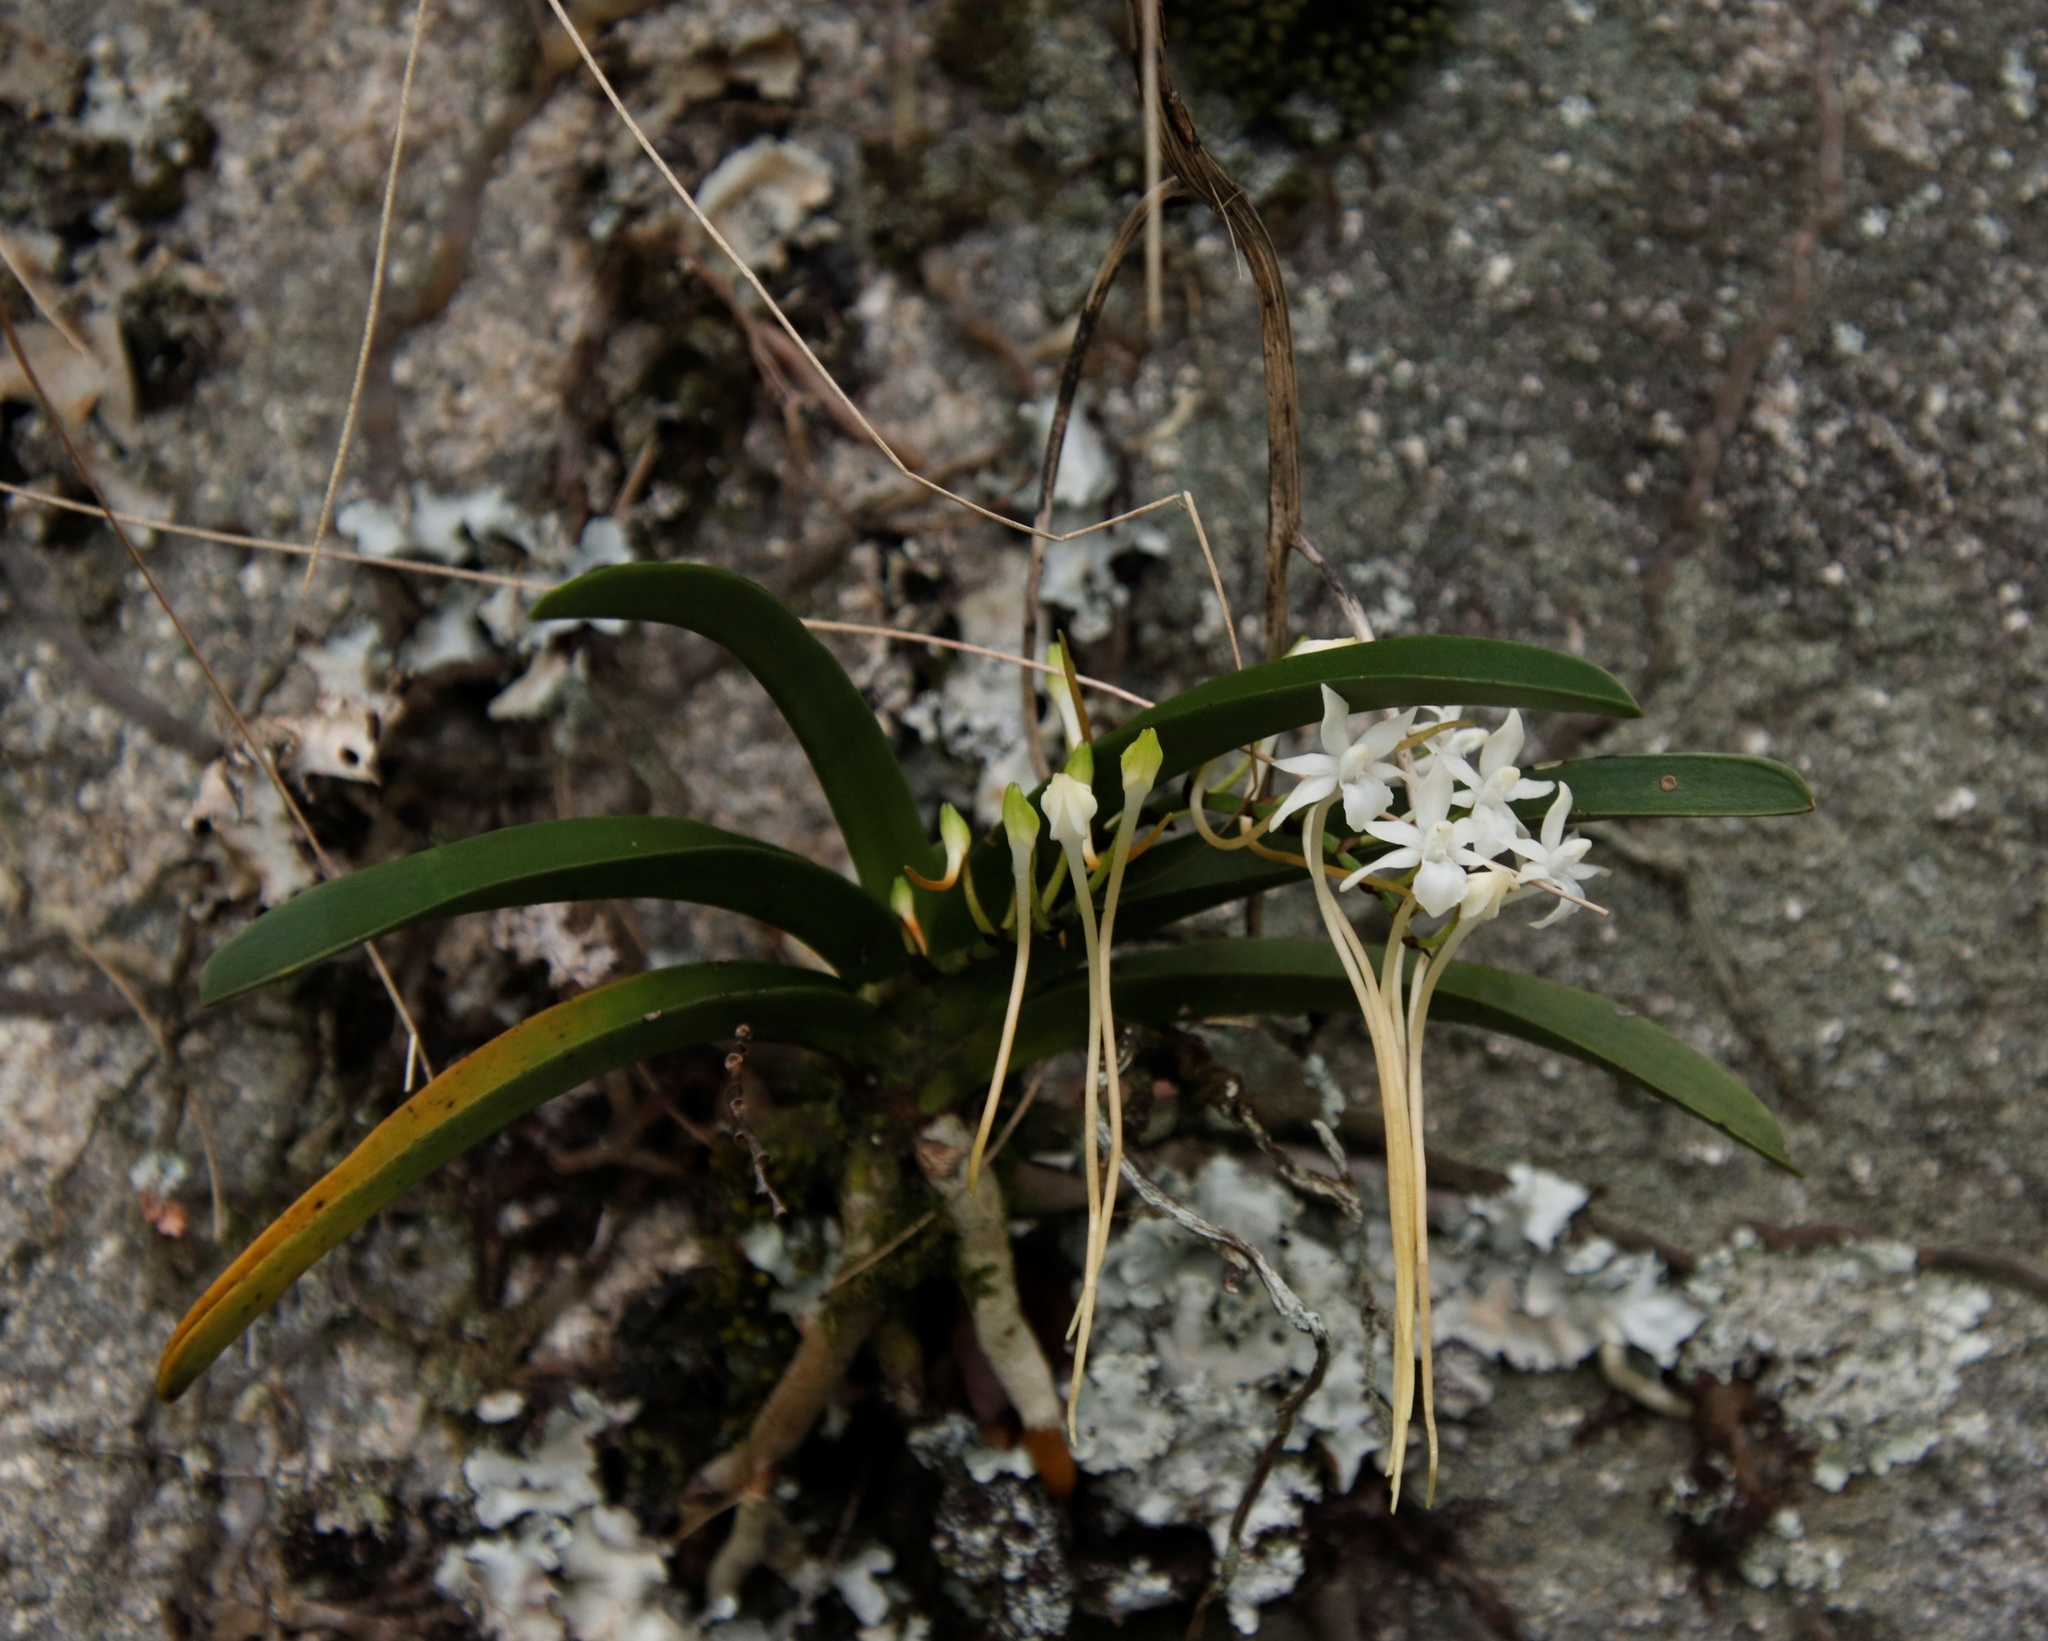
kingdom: Plantae
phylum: Tracheophyta
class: Liliopsida
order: Asparagales
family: Orchidaceae
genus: Rangaeris
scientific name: Rangaeris muscicola
